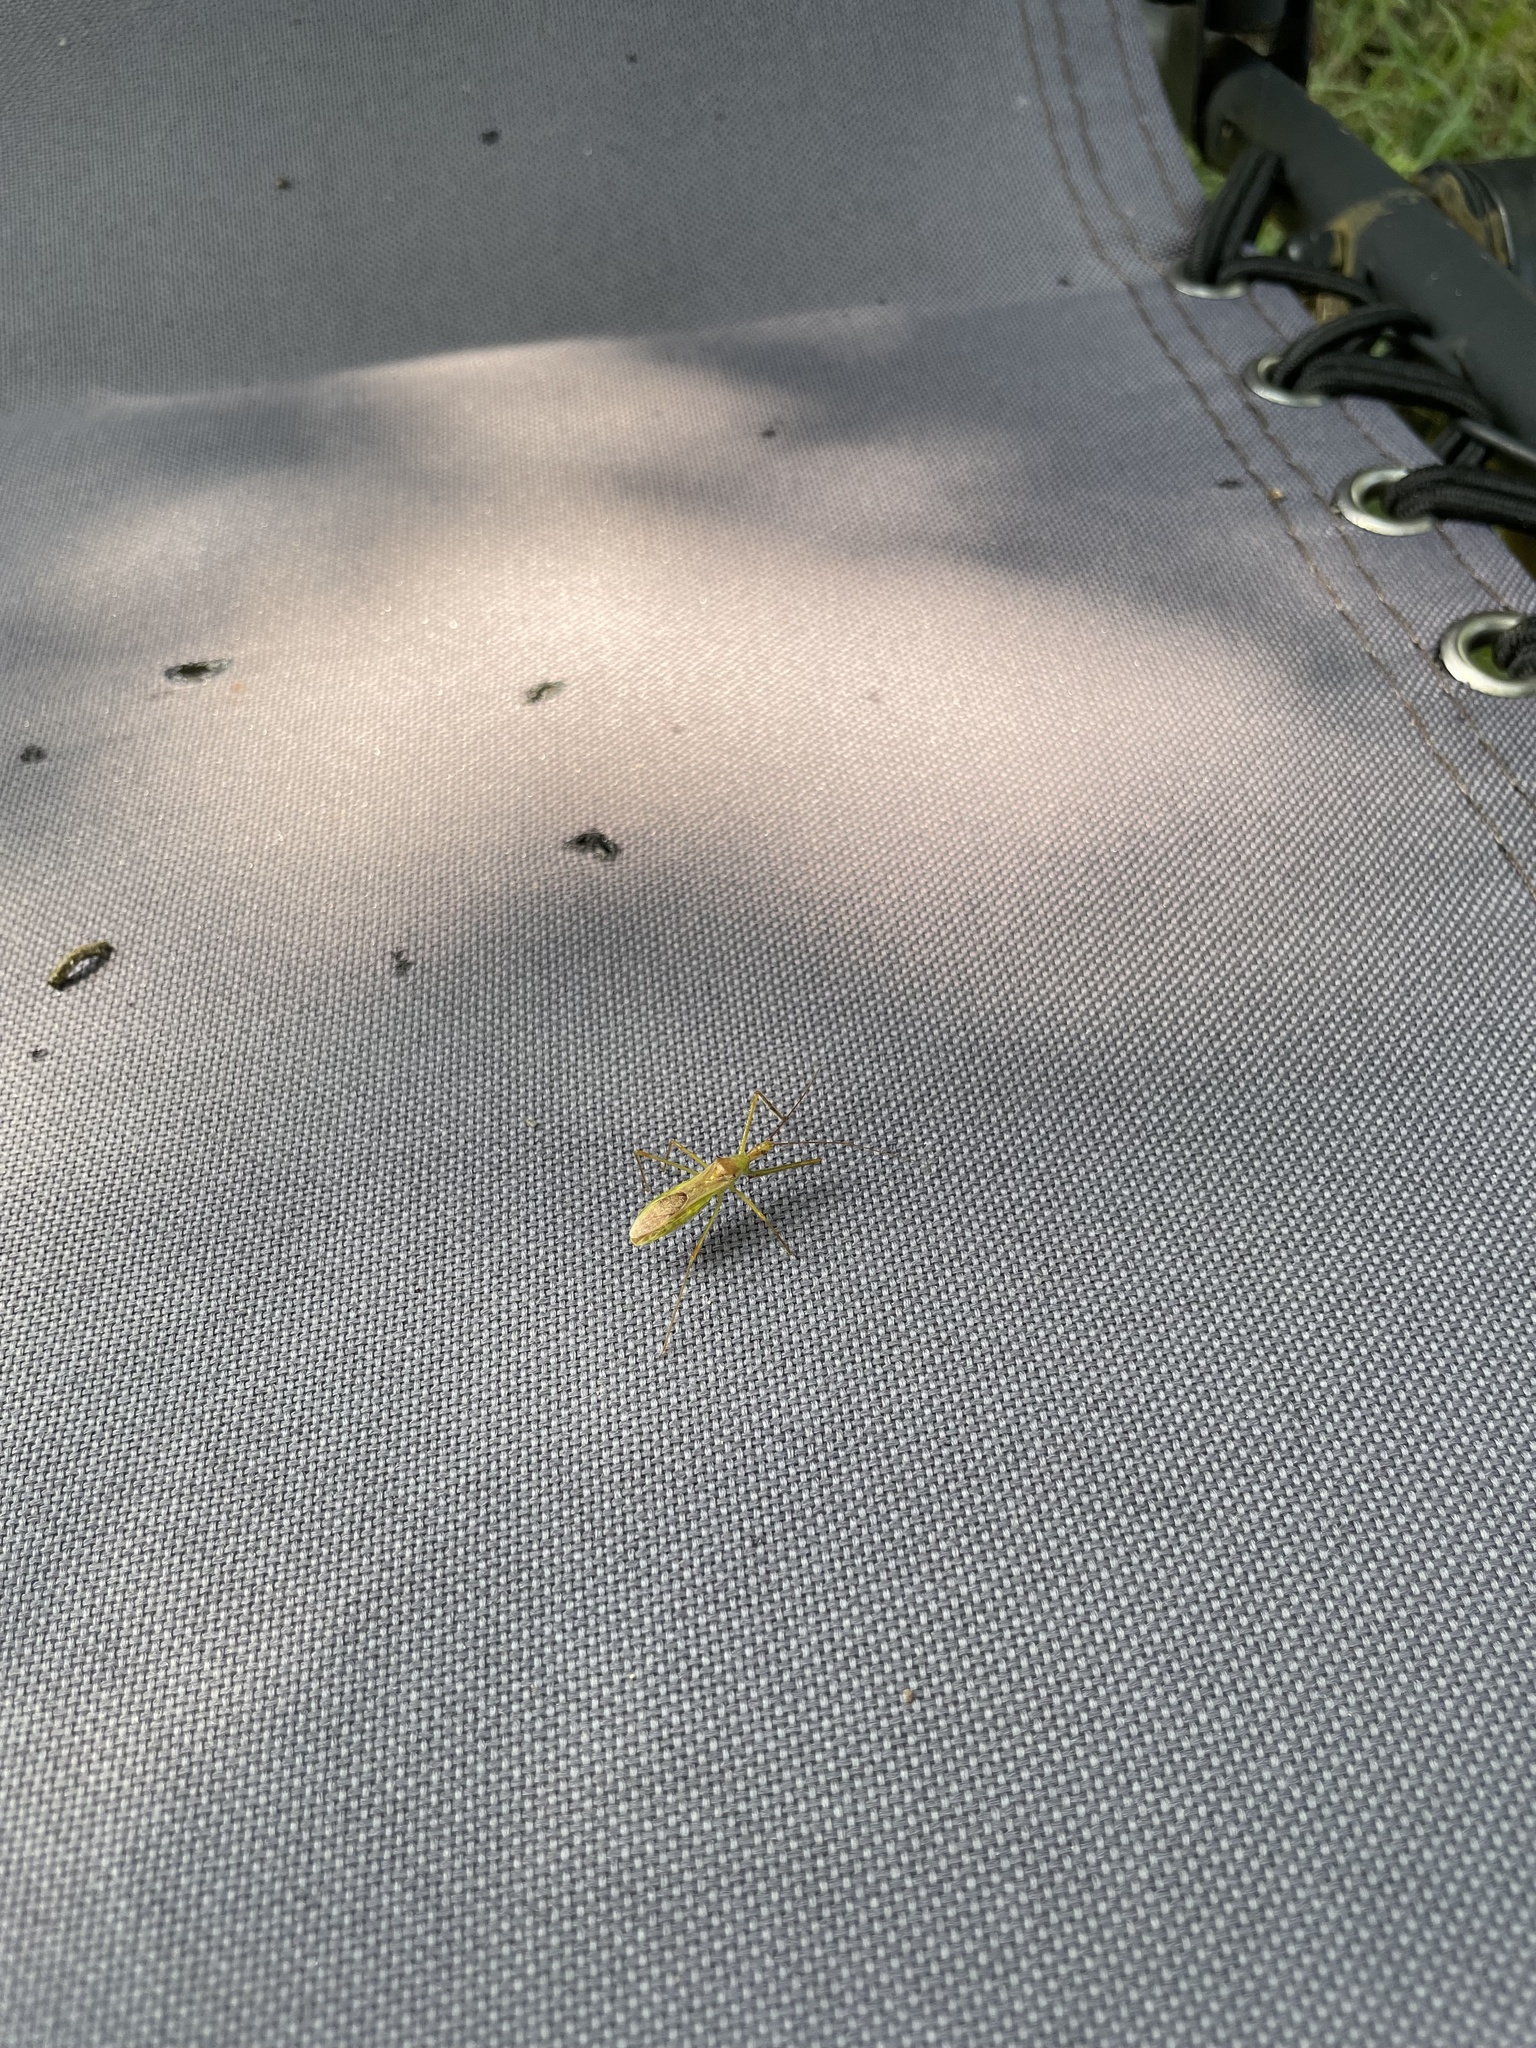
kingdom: Animalia
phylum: Arthropoda
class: Insecta
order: Hemiptera
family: Reduviidae
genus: Zelus
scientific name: Zelus luridus
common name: Pale green assassin bug
